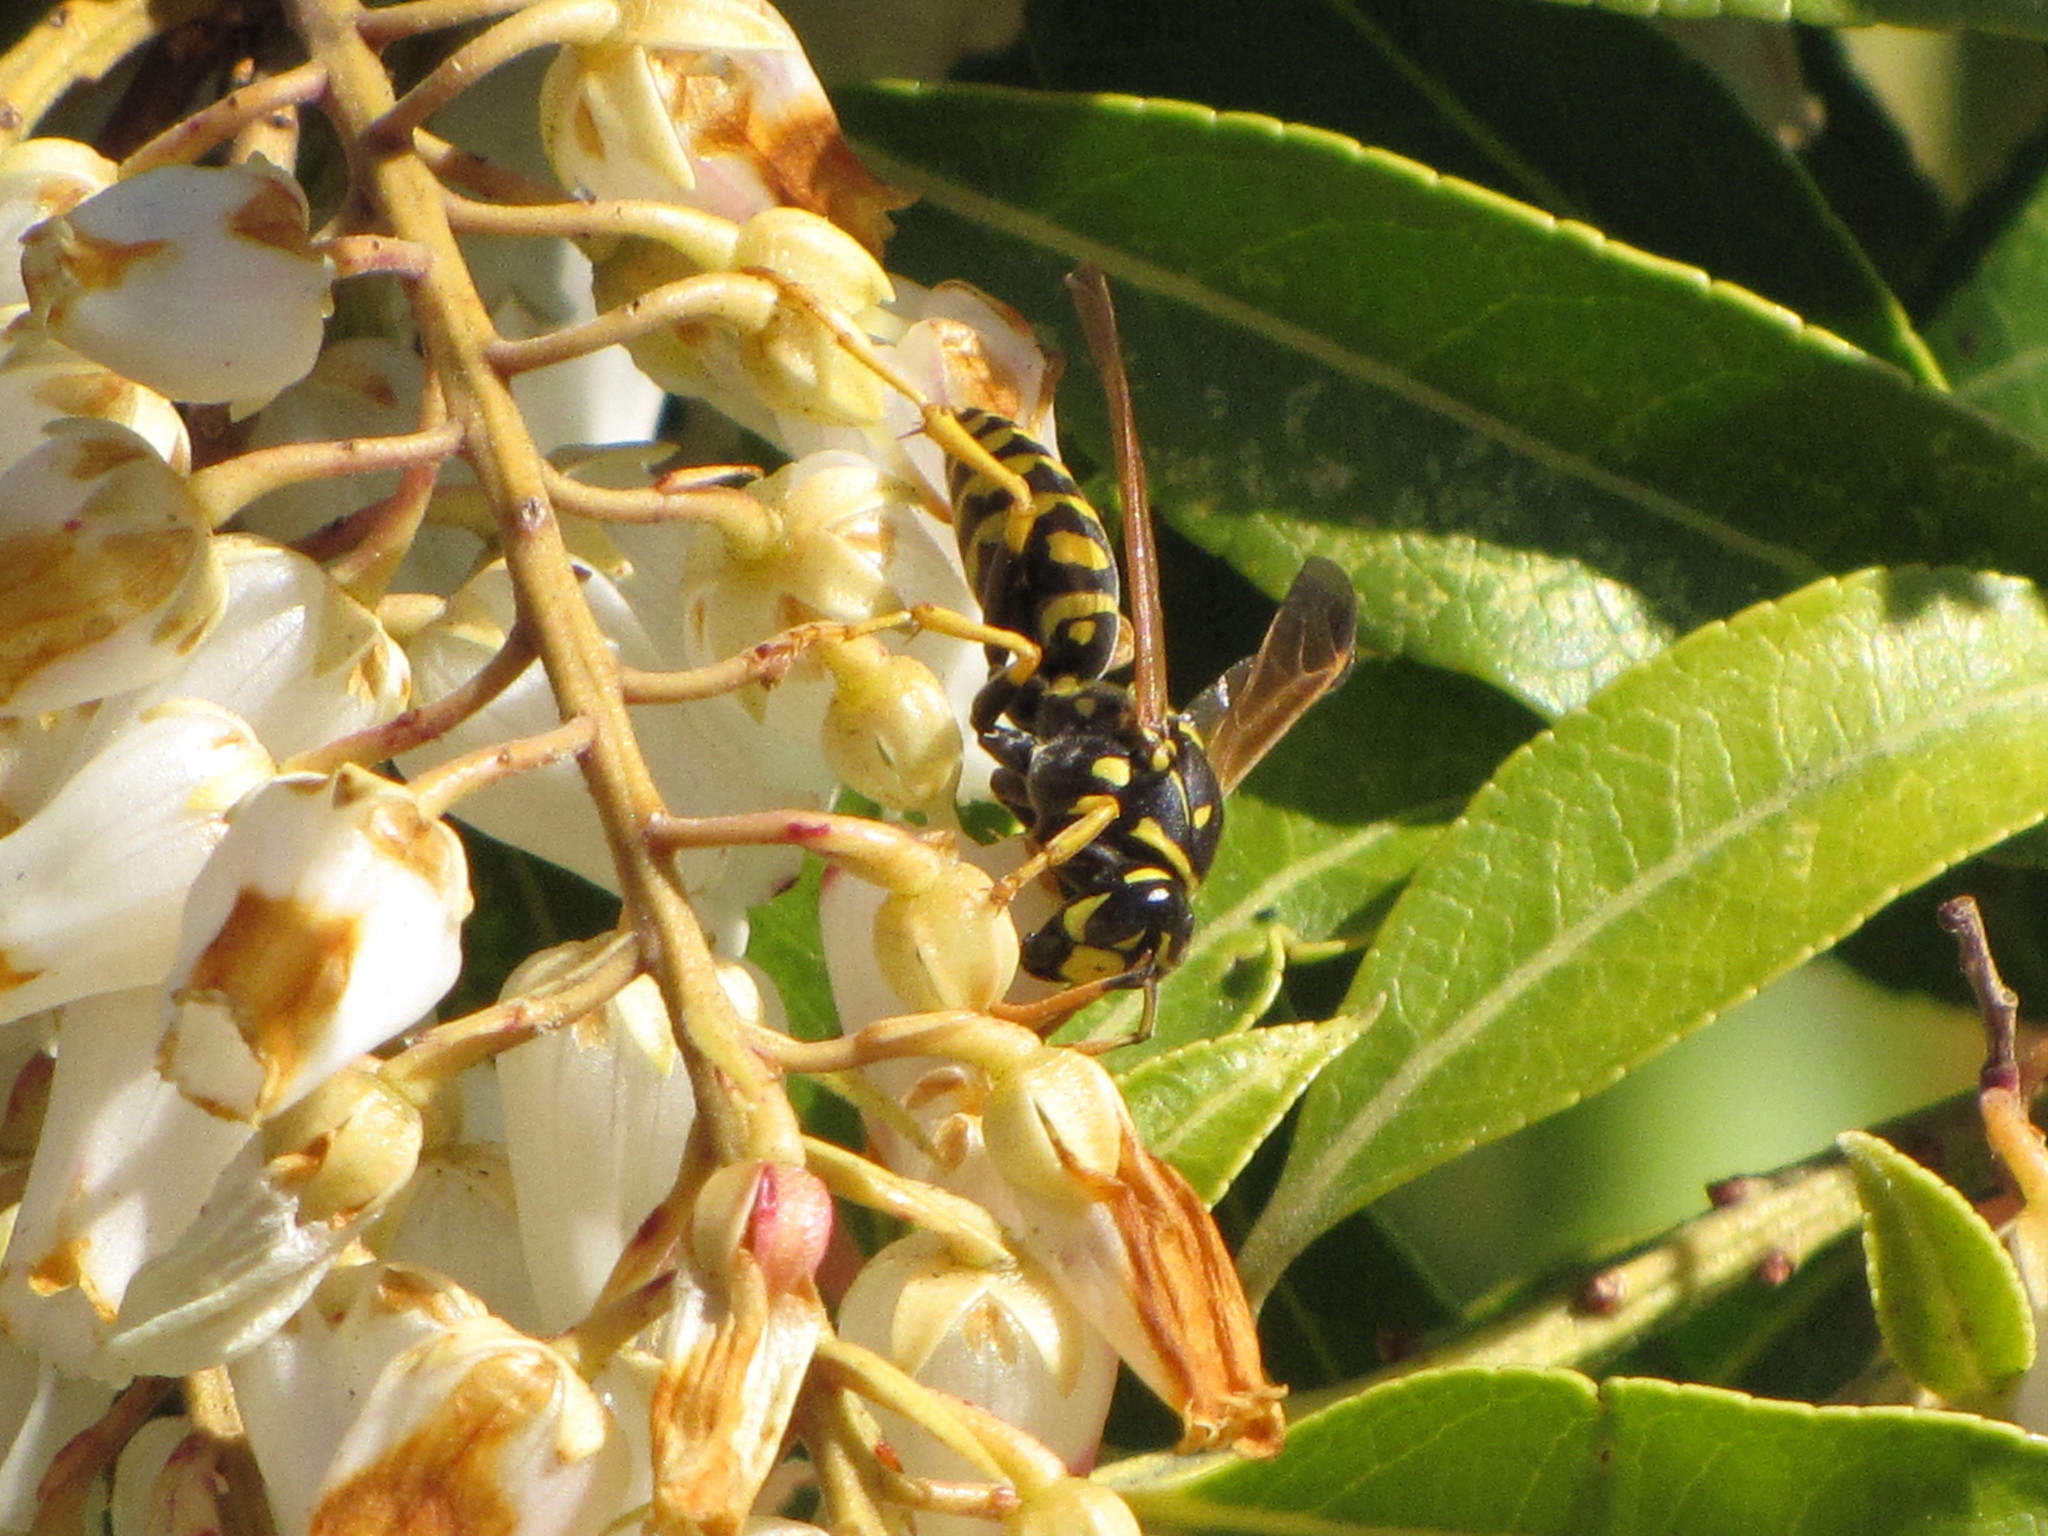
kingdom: Animalia
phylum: Arthropoda
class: Insecta
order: Hymenoptera
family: Eumenidae
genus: Polistes
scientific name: Polistes dominula
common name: Paper wasp
